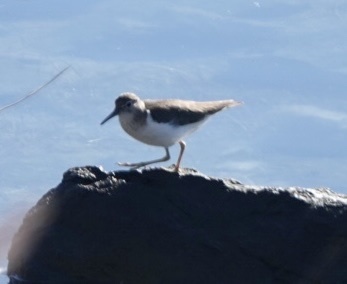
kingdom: Animalia
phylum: Chordata
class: Aves
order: Charadriiformes
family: Scolopacidae
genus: Actitis
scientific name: Actitis macularius
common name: Spotted sandpiper
